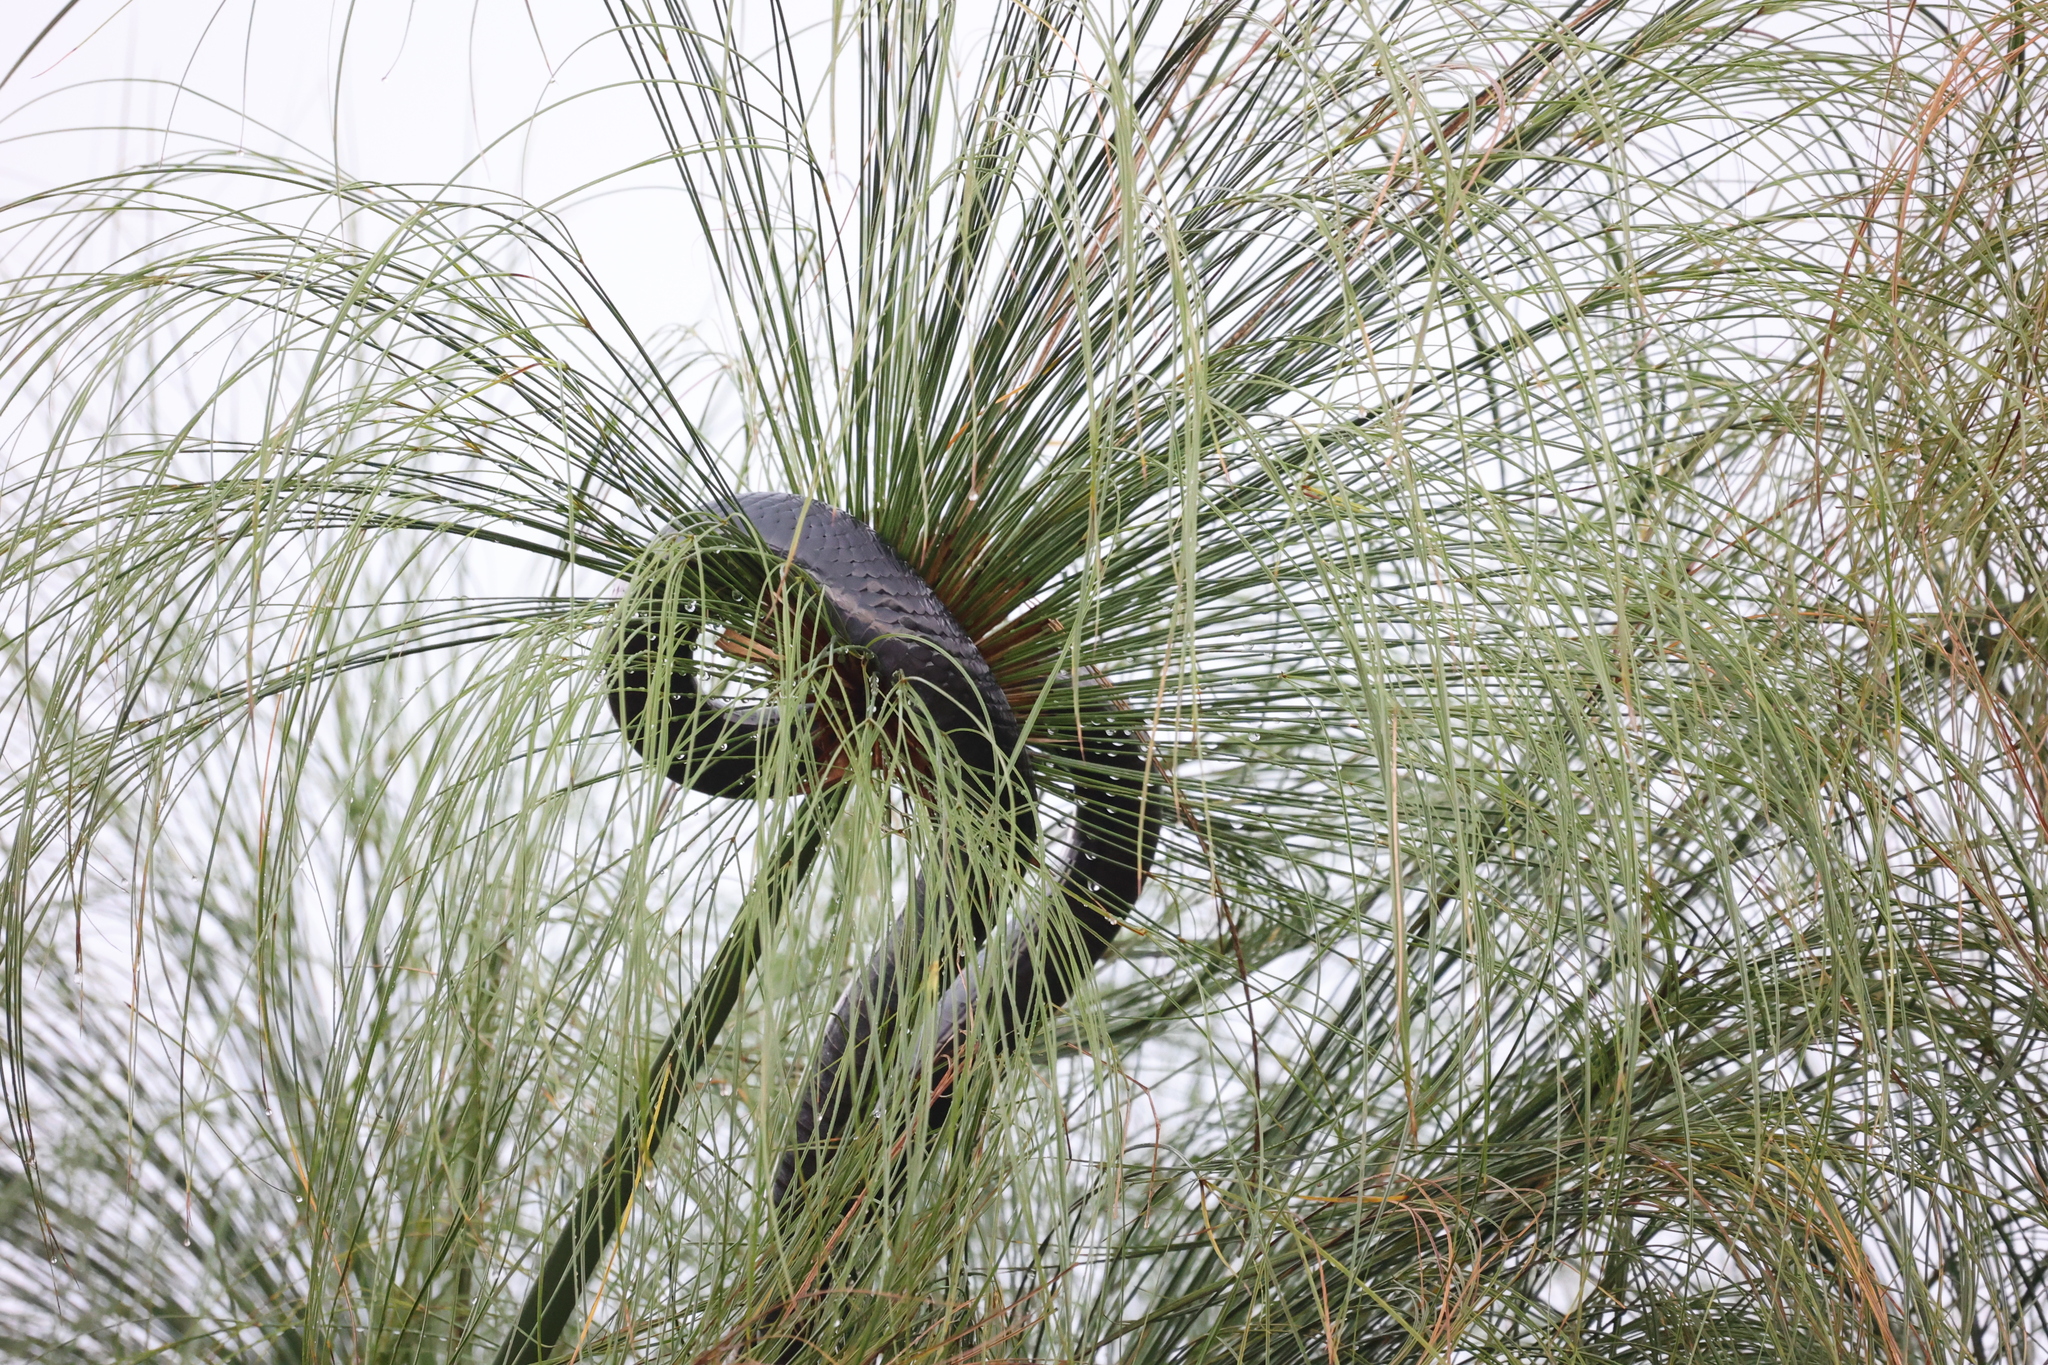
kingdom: Animalia
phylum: Chordata
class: Squamata
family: Elapidae
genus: Naja
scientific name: Naja subfulva
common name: Brown forest cobra
